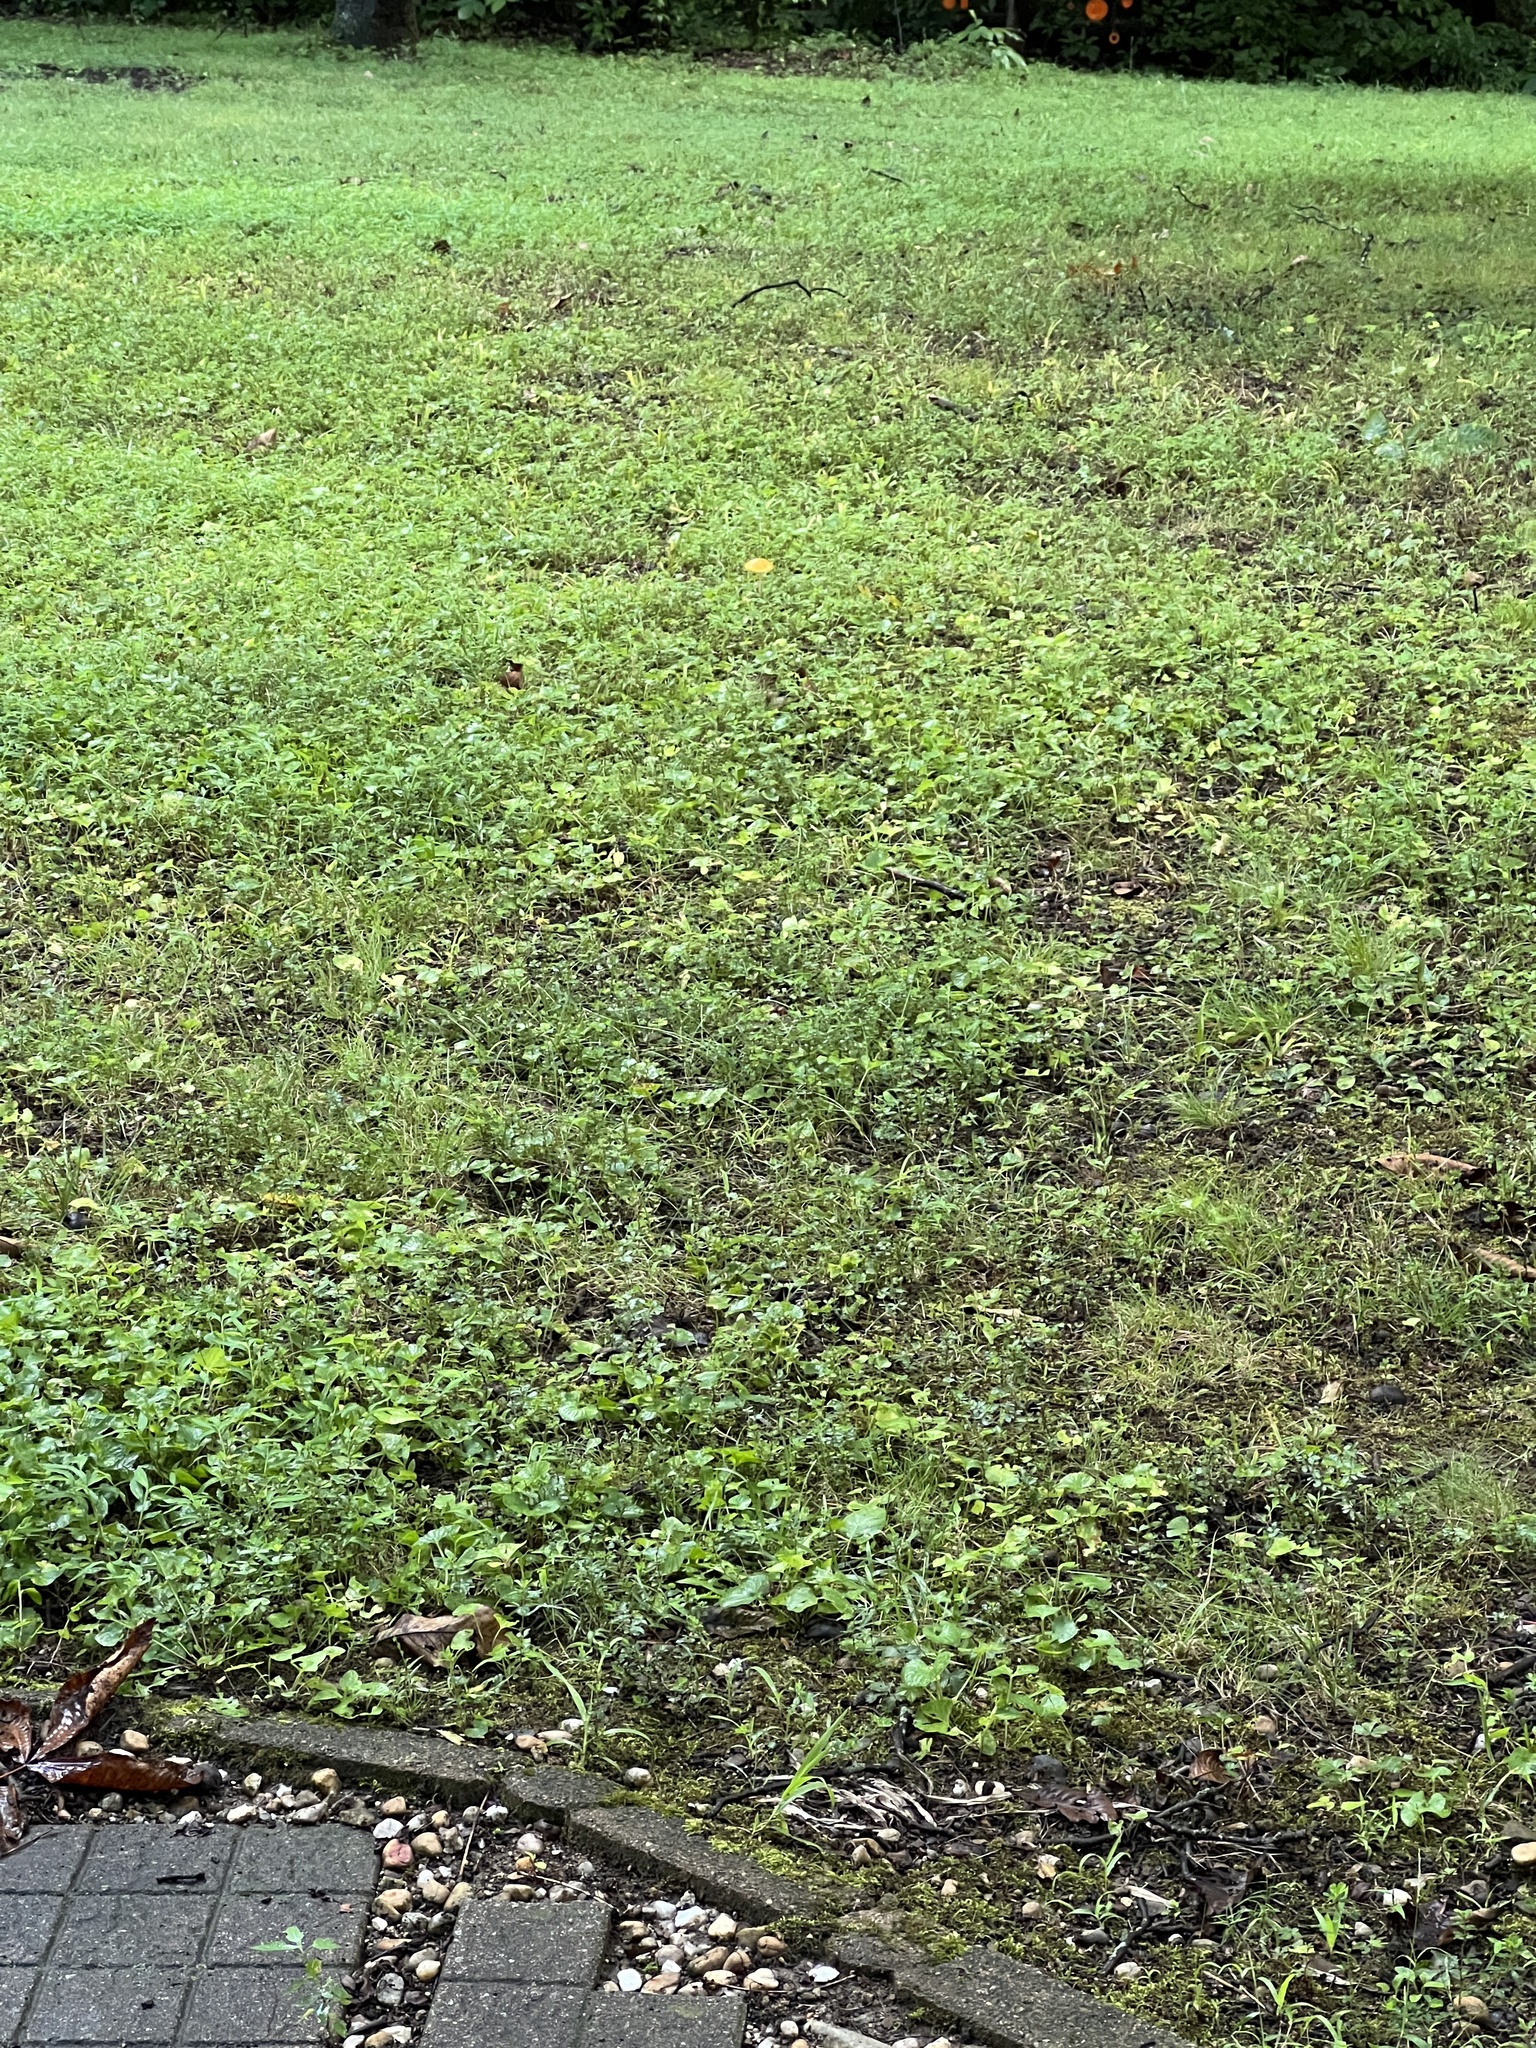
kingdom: Fungi
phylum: Basidiomycota
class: Agaricomycetes
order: Agaricales
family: Physalacriaceae
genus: Hymenopellis
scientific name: Hymenopellis incognita
